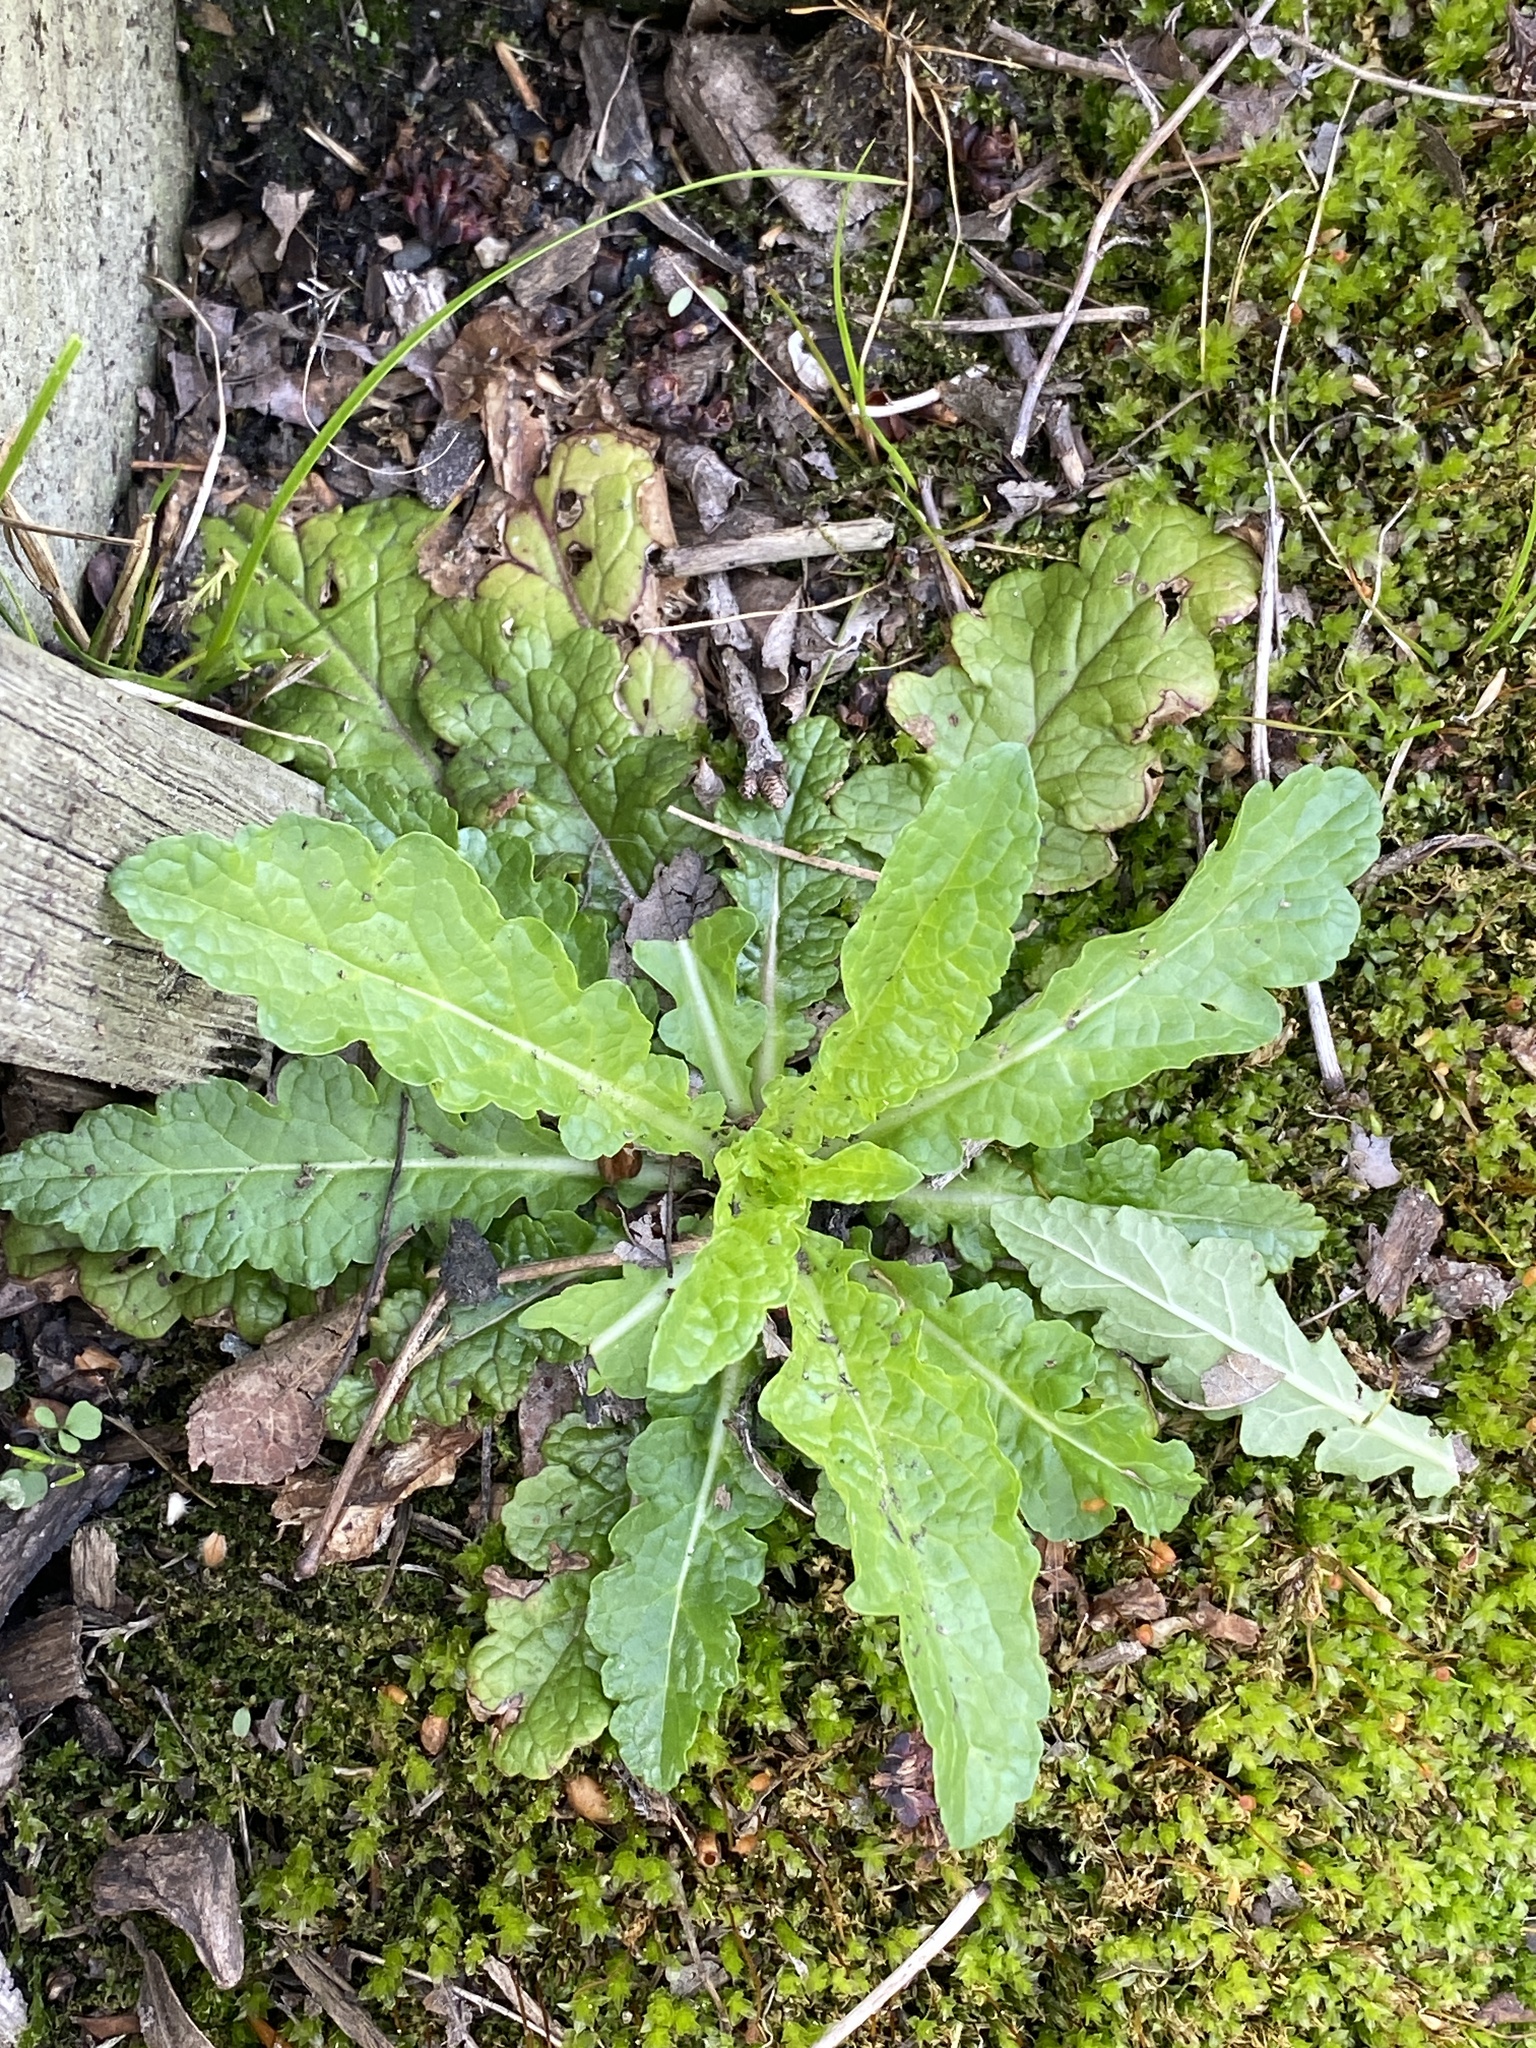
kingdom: Plantae
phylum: Tracheophyta
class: Magnoliopsida
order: Lamiales
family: Scrophulariaceae
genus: Verbascum
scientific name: Verbascum blattaria
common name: Moth mullein
